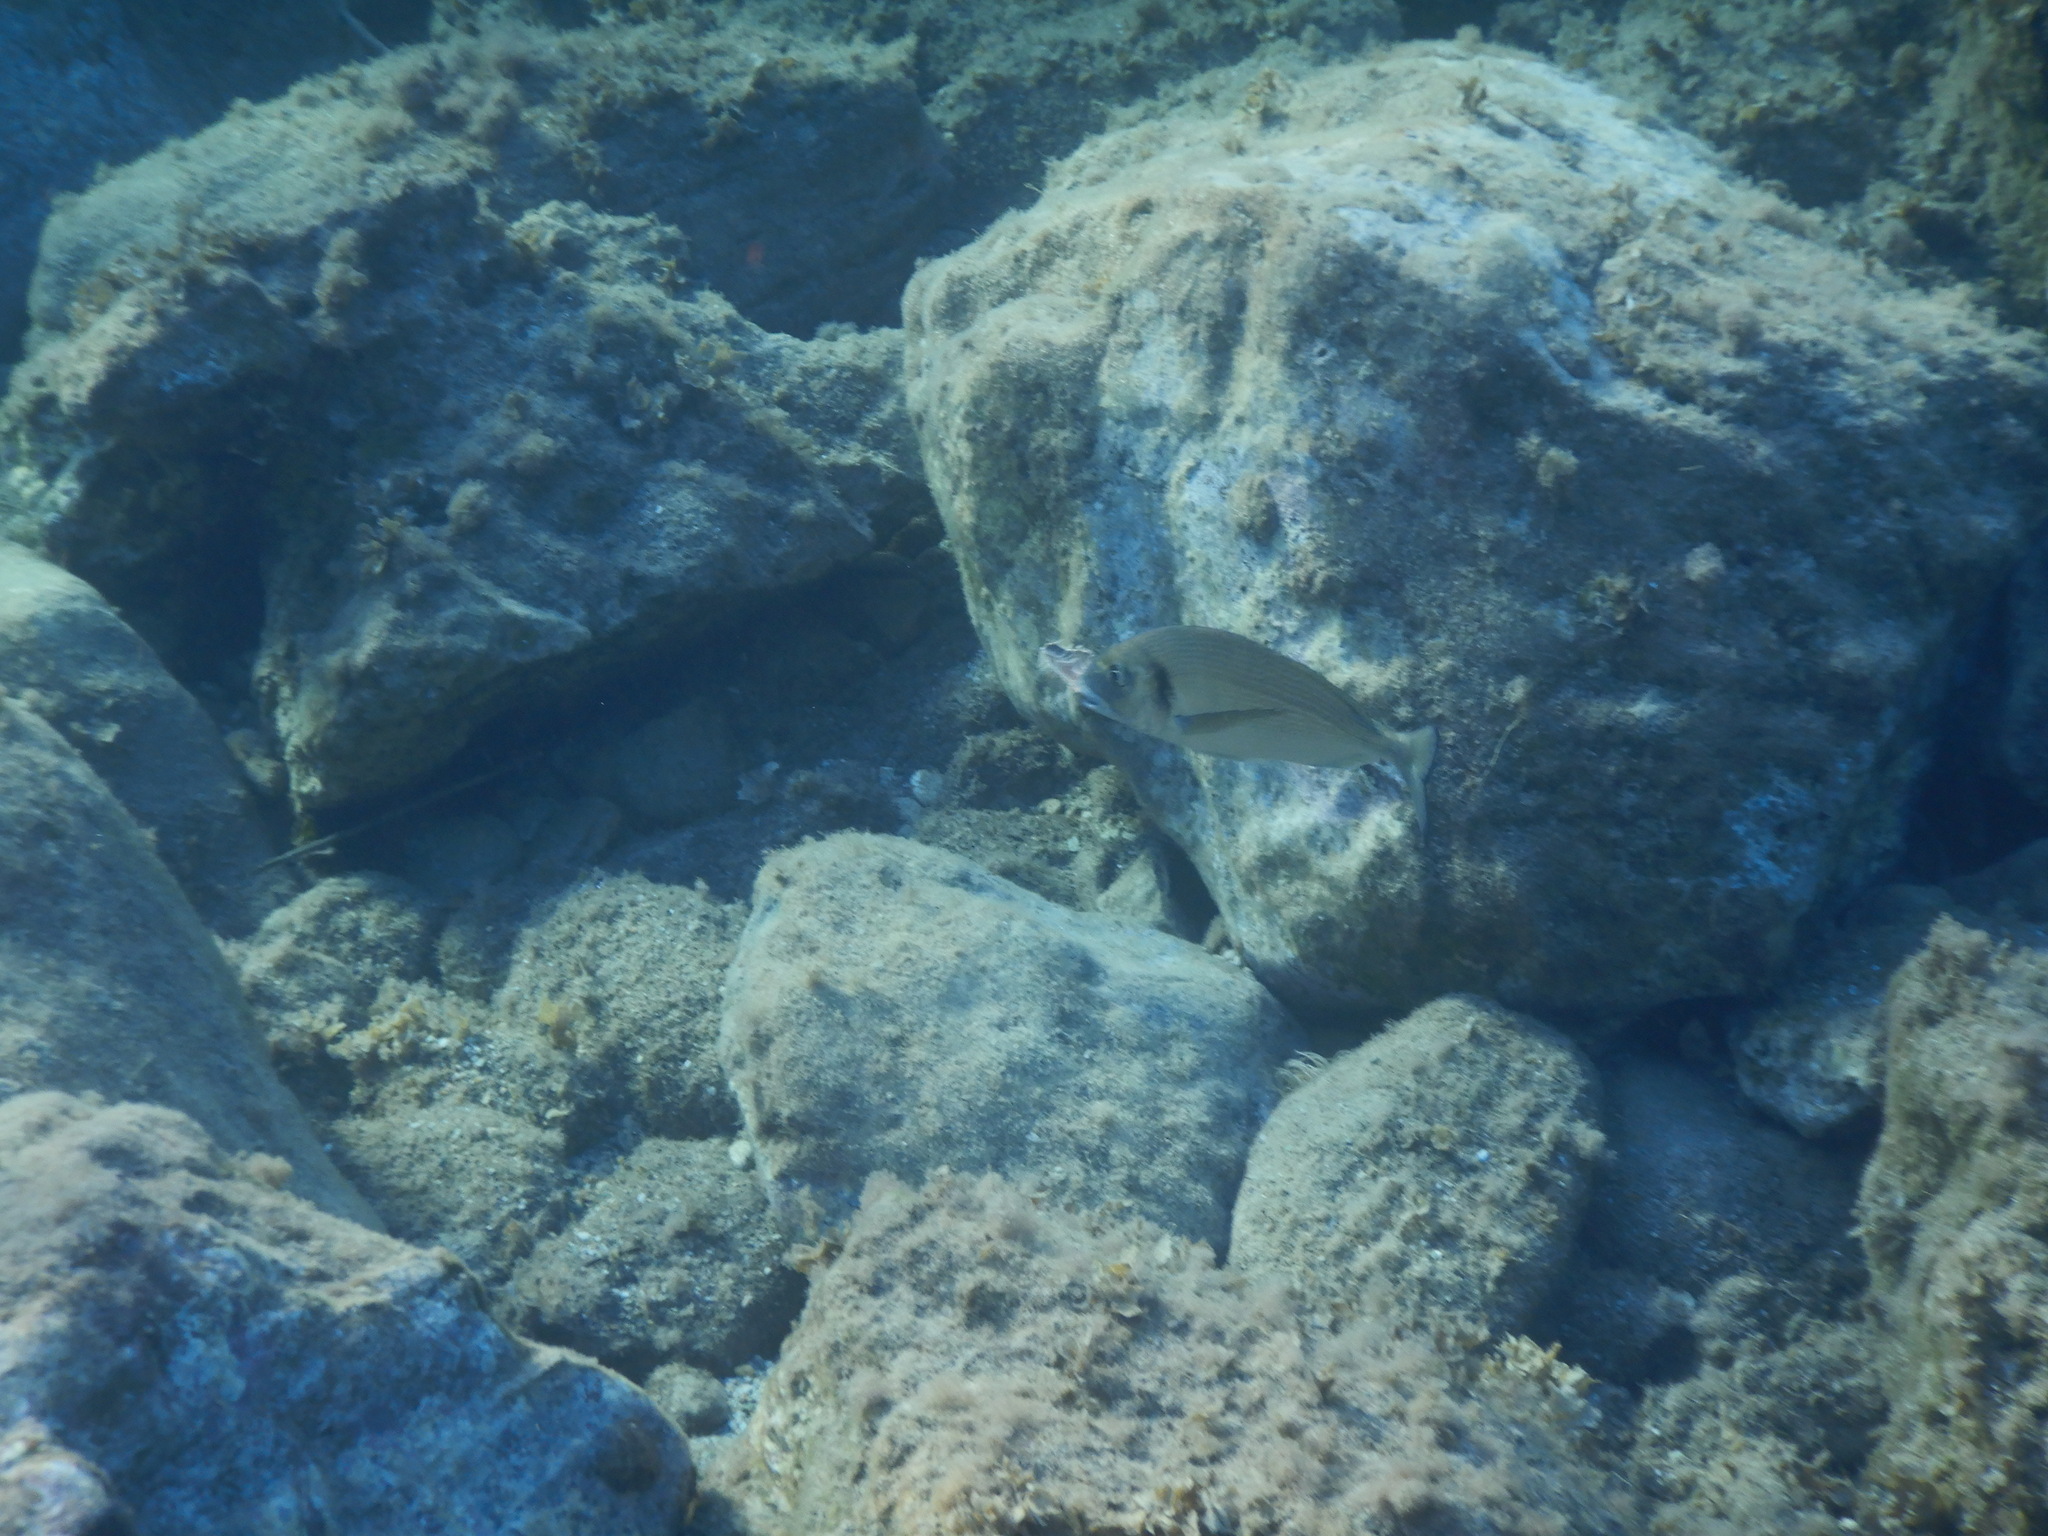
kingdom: Animalia
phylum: Chordata
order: Perciformes
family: Sparidae
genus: Sparus
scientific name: Sparus aurata
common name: Gilthead
